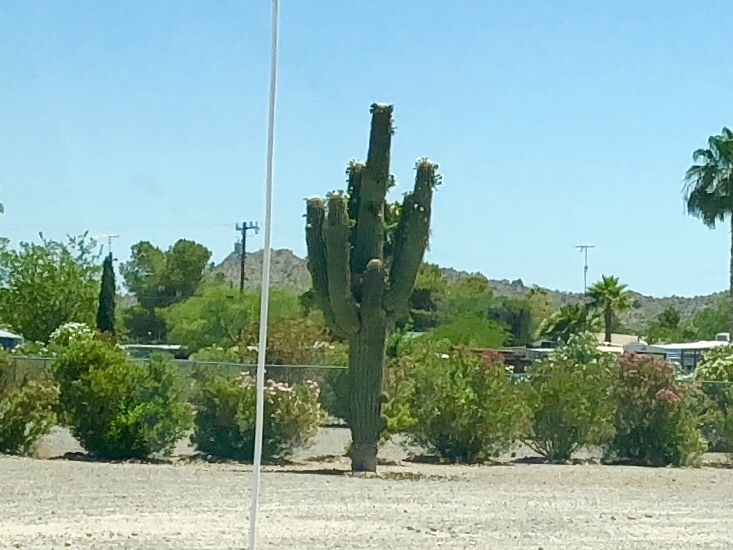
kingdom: Plantae
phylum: Tracheophyta
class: Magnoliopsida
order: Caryophyllales
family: Cactaceae
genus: Carnegiea
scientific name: Carnegiea gigantea
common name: Saguaro
